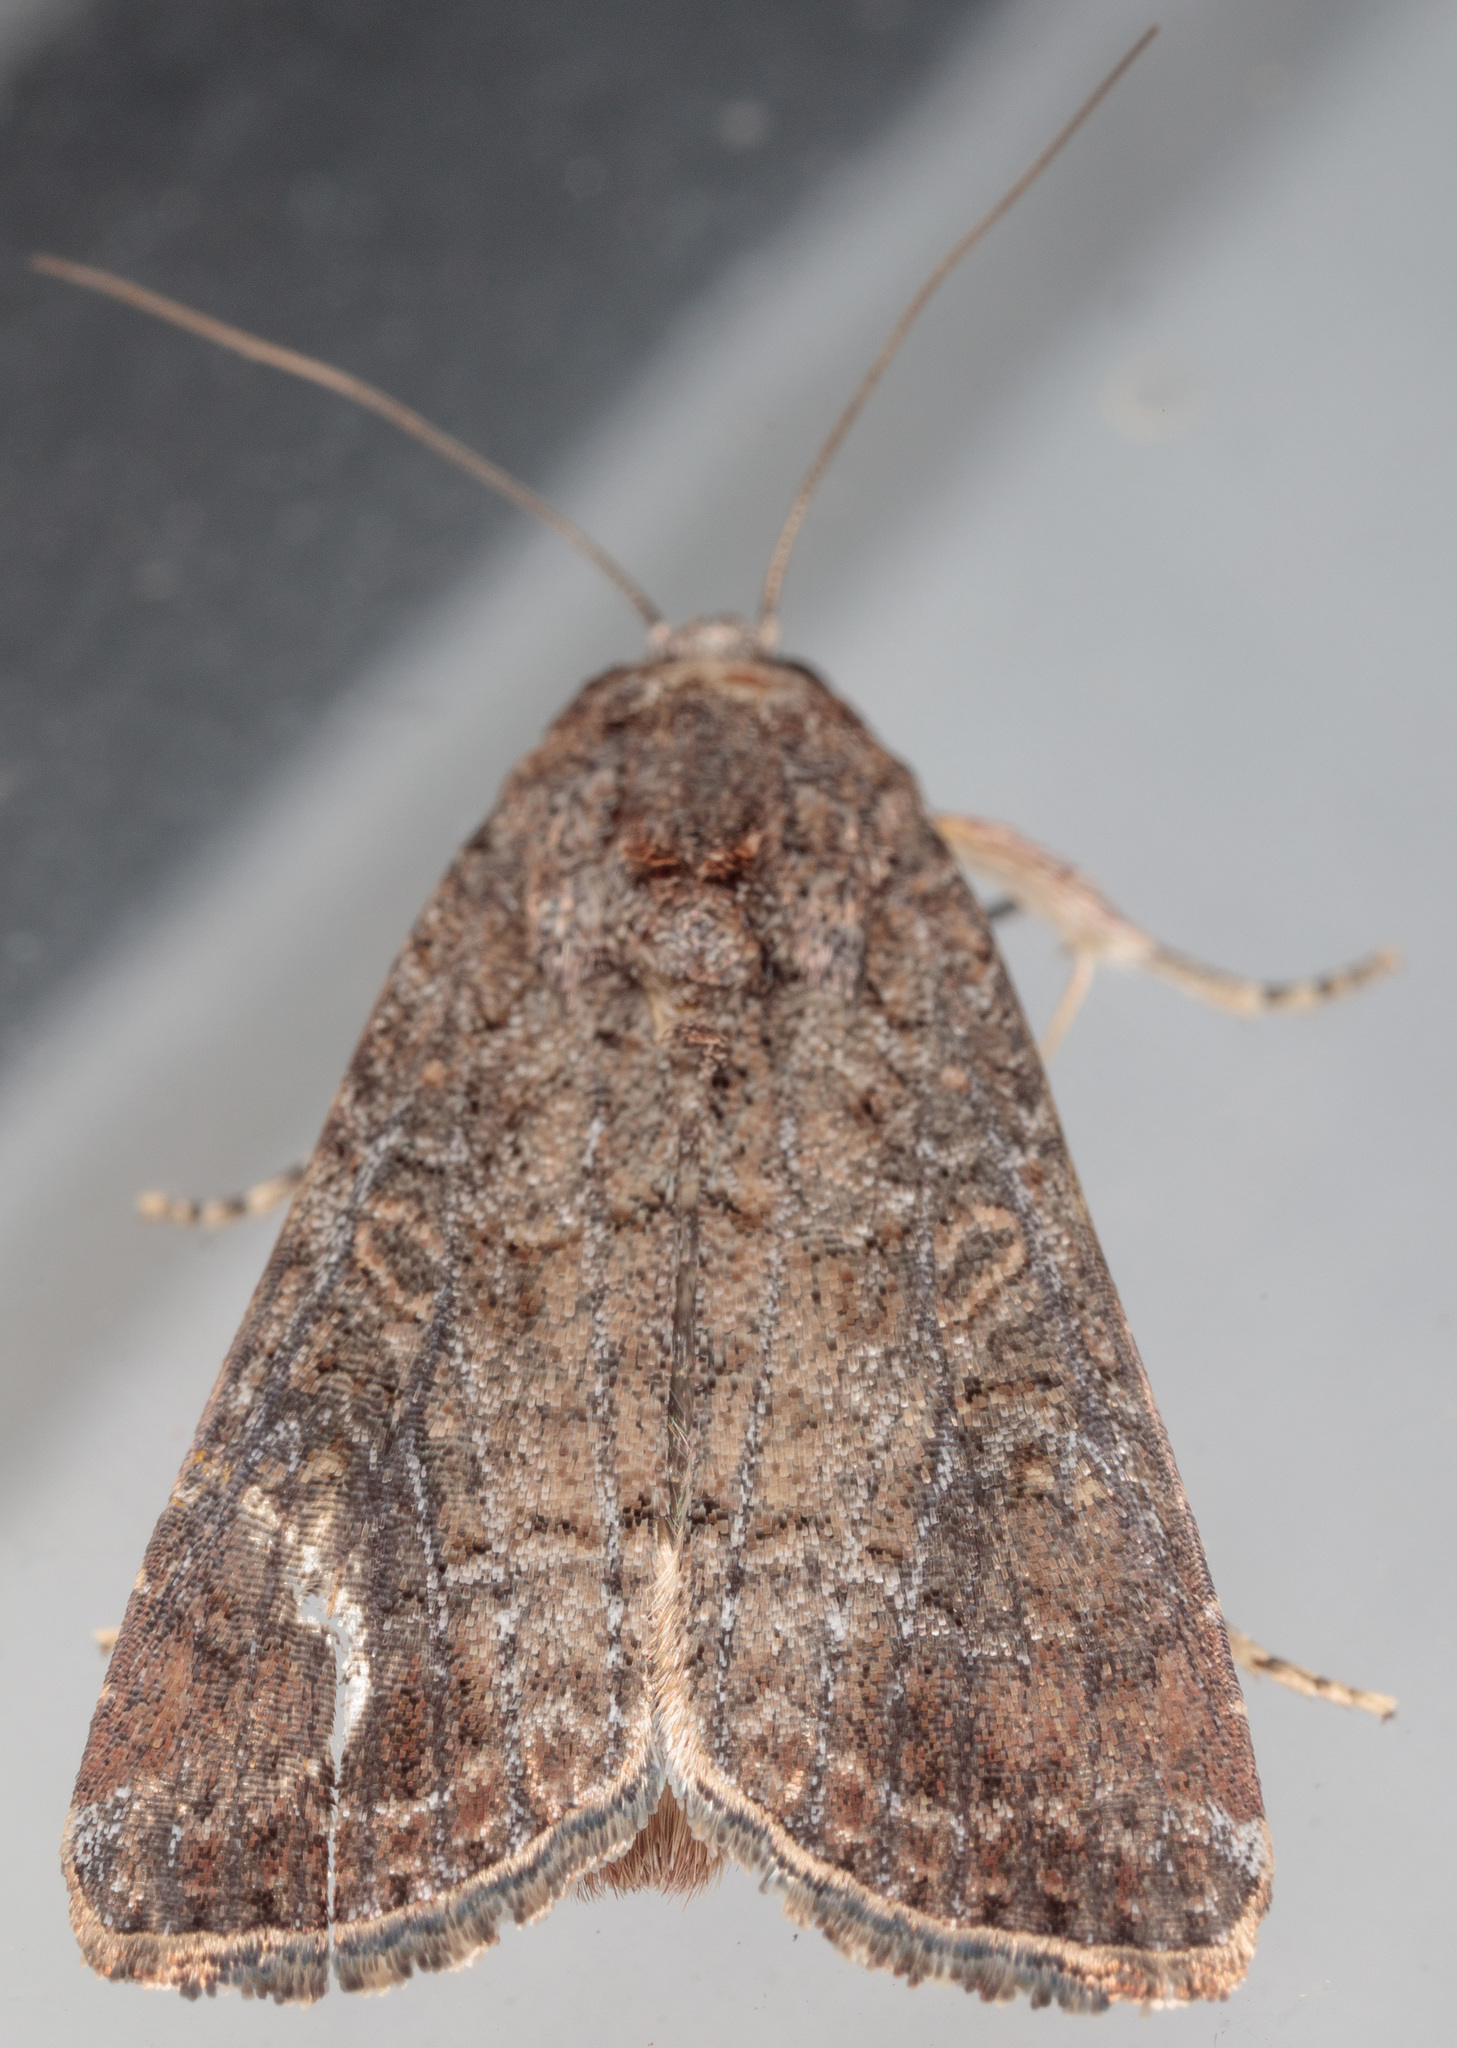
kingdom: Animalia
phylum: Arthropoda
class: Insecta
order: Lepidoptera
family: Noctuidae
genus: Spodoptera
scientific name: Spodoptera exigua
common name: Beet armyworm
